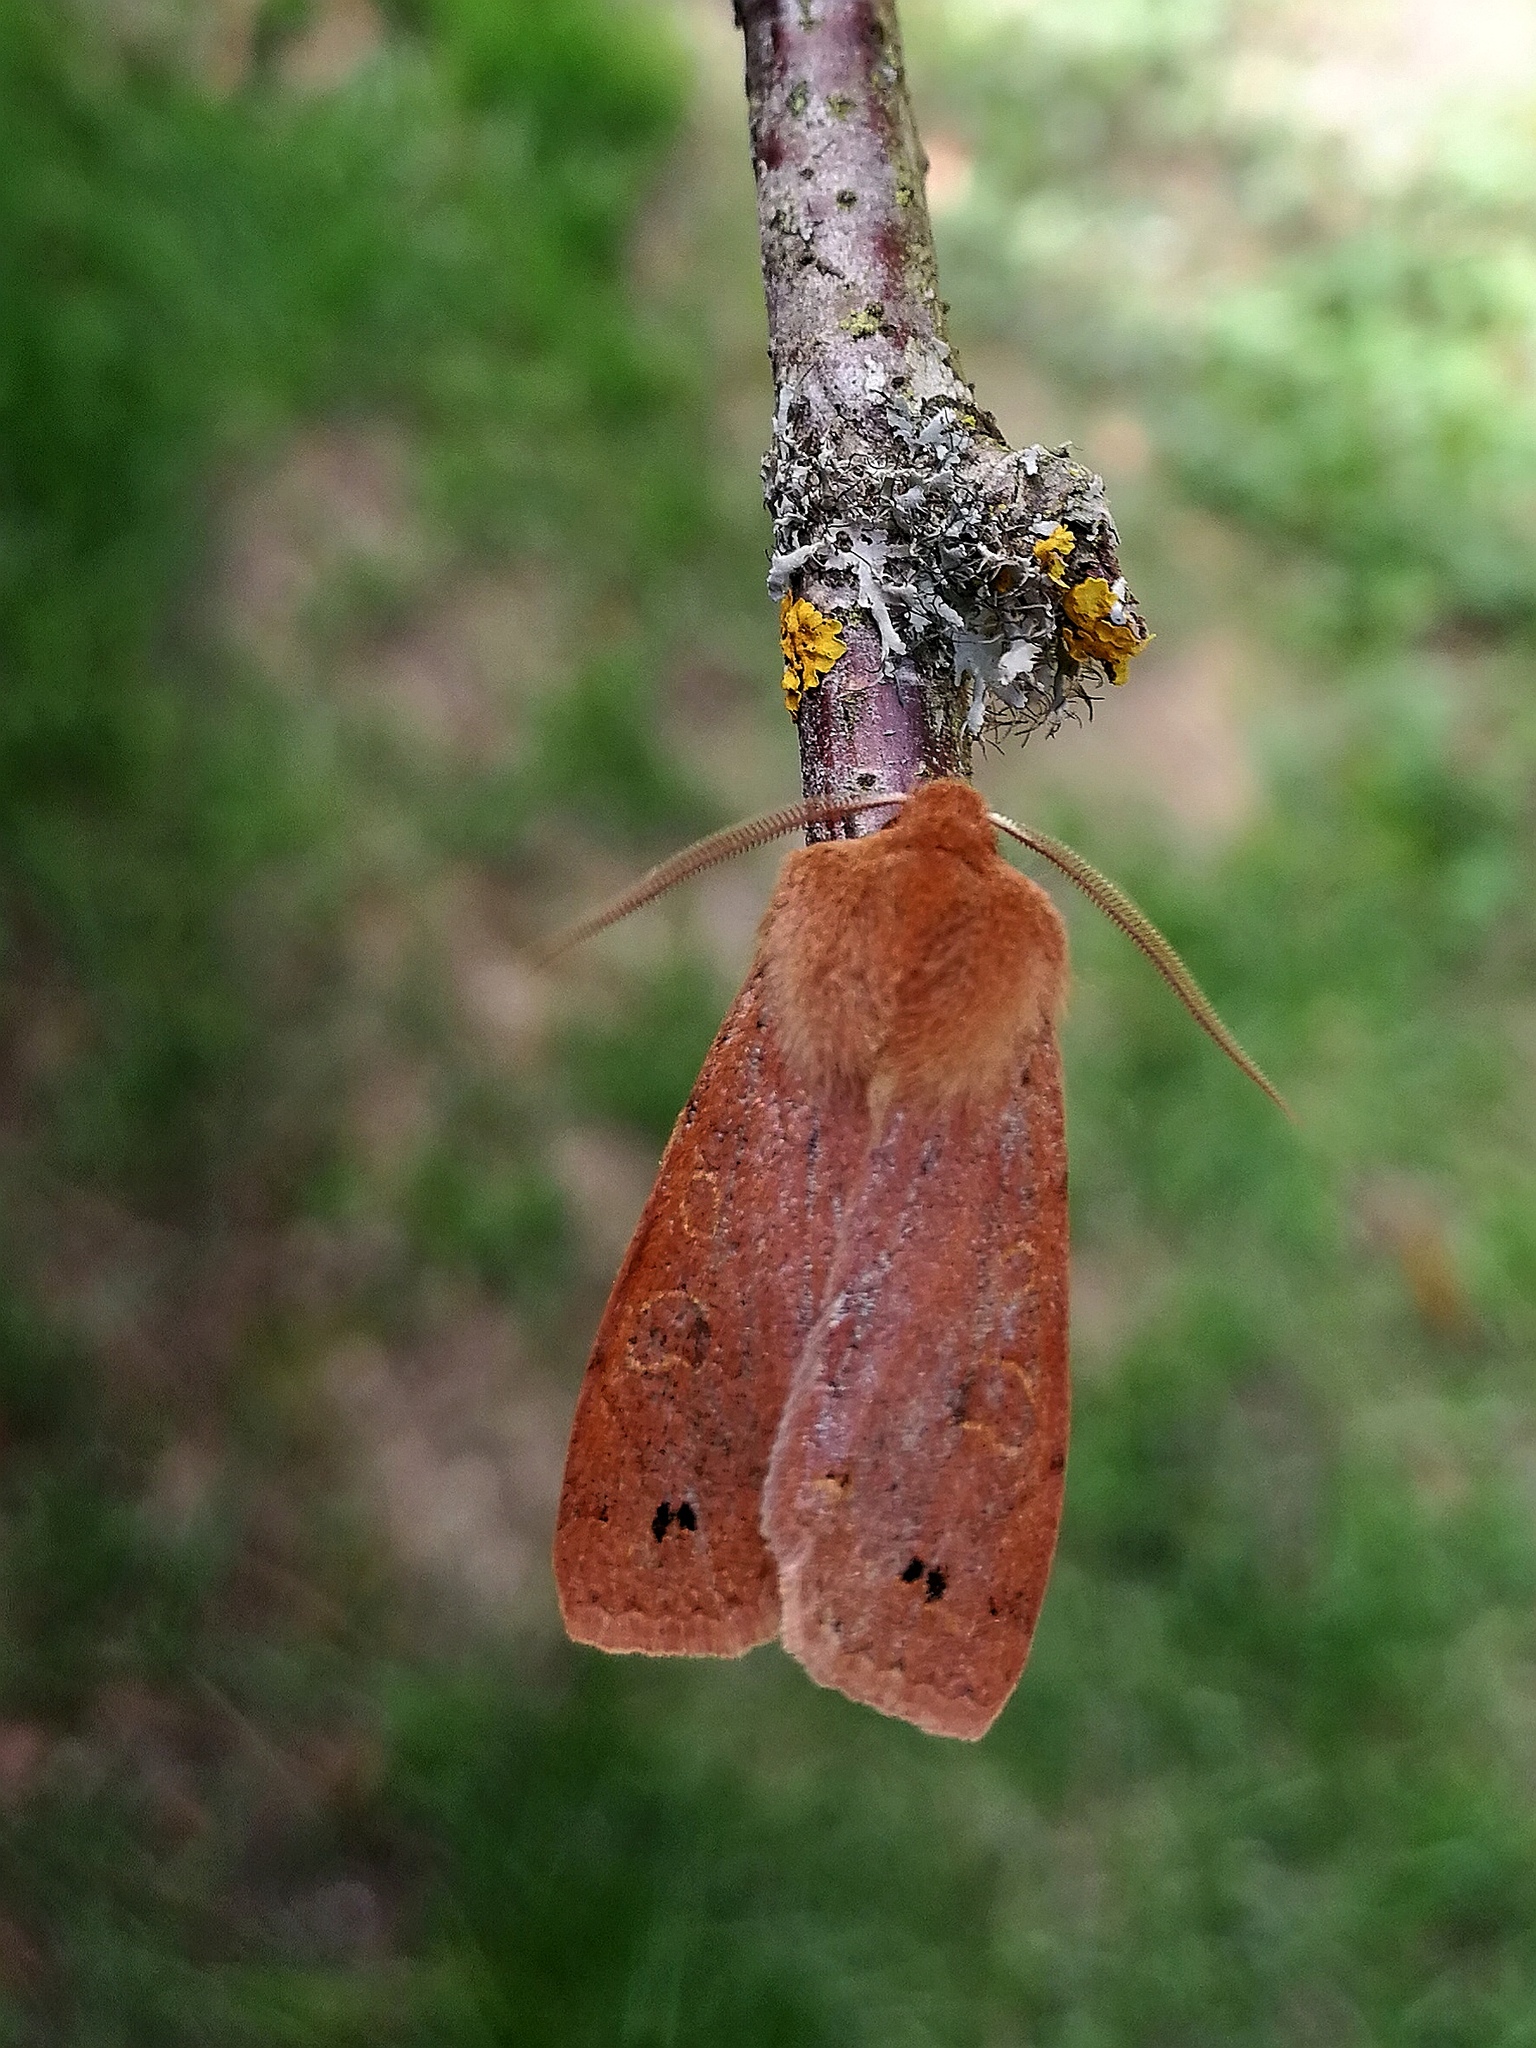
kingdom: Animalia
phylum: Arthropoda
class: Insecta
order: Lepidoptera
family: Noctuidae
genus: Anorthoa
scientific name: Anorthoa munda
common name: Twin-spotted quaker
